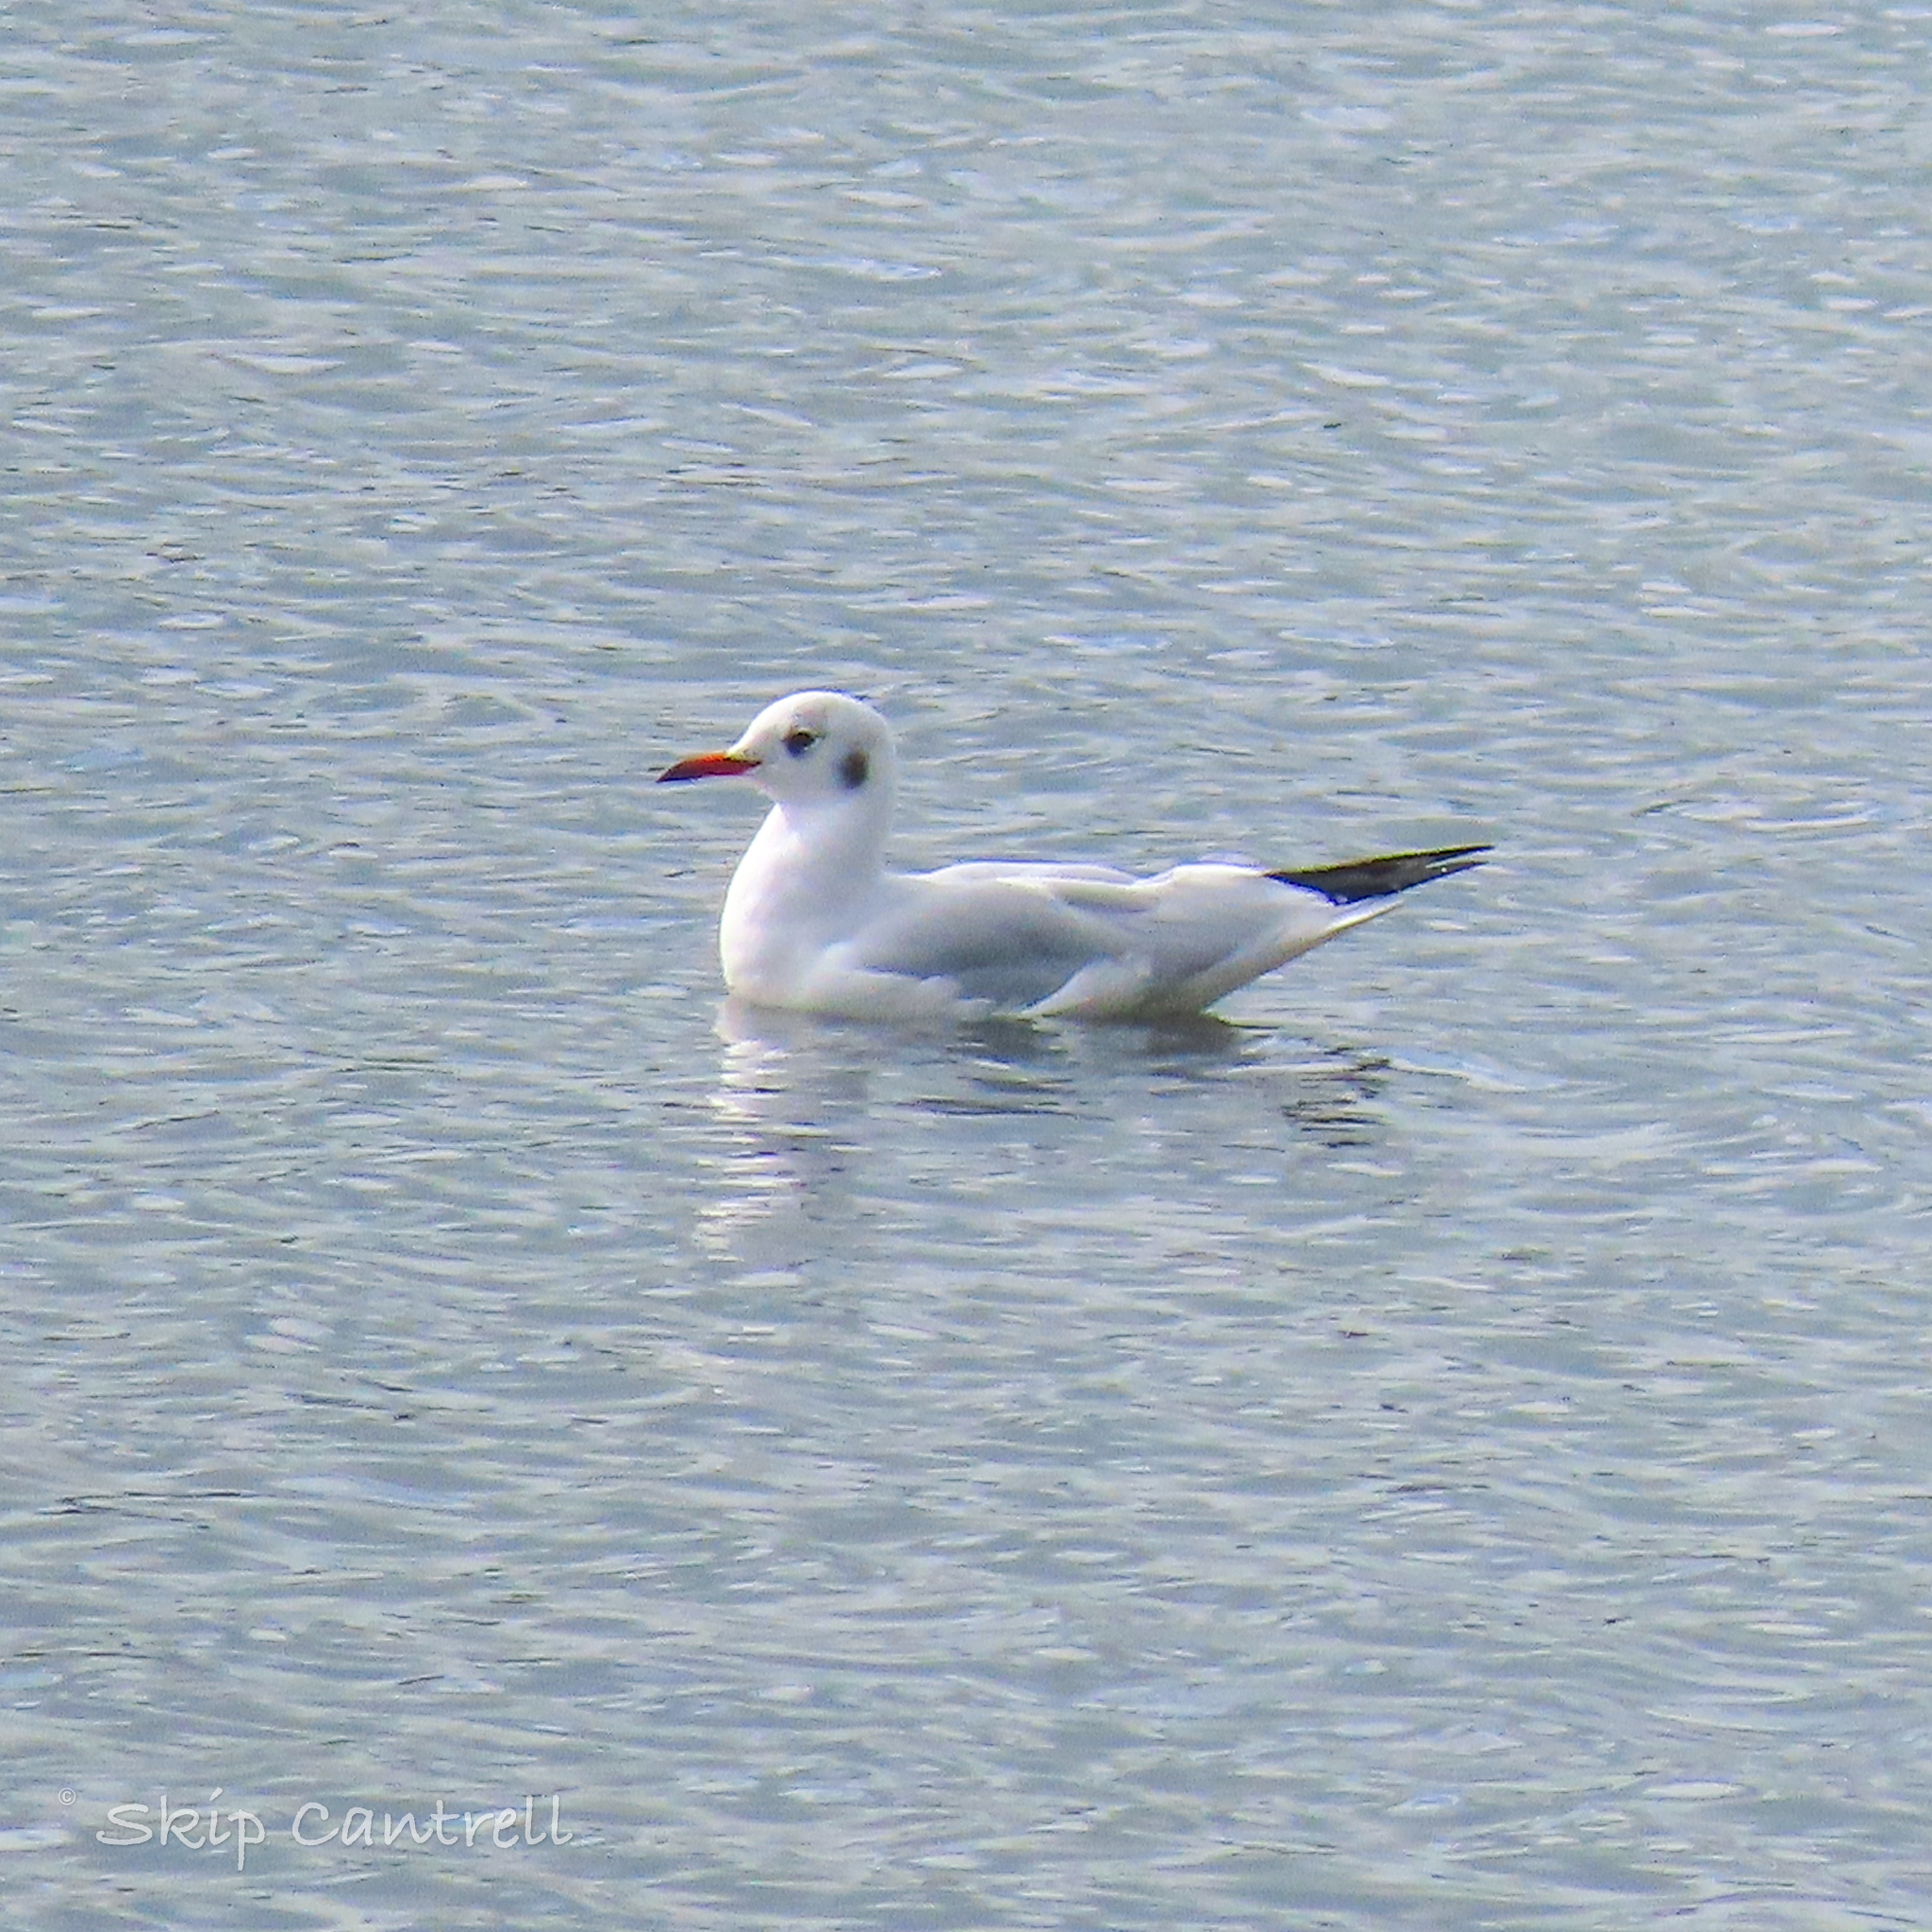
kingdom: Animalia
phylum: Chordata
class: Aves
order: Charadriiformes
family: Laridae
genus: Chroicocephalus
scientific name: Chroicocephalus ridibundus
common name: Black-headed gull
